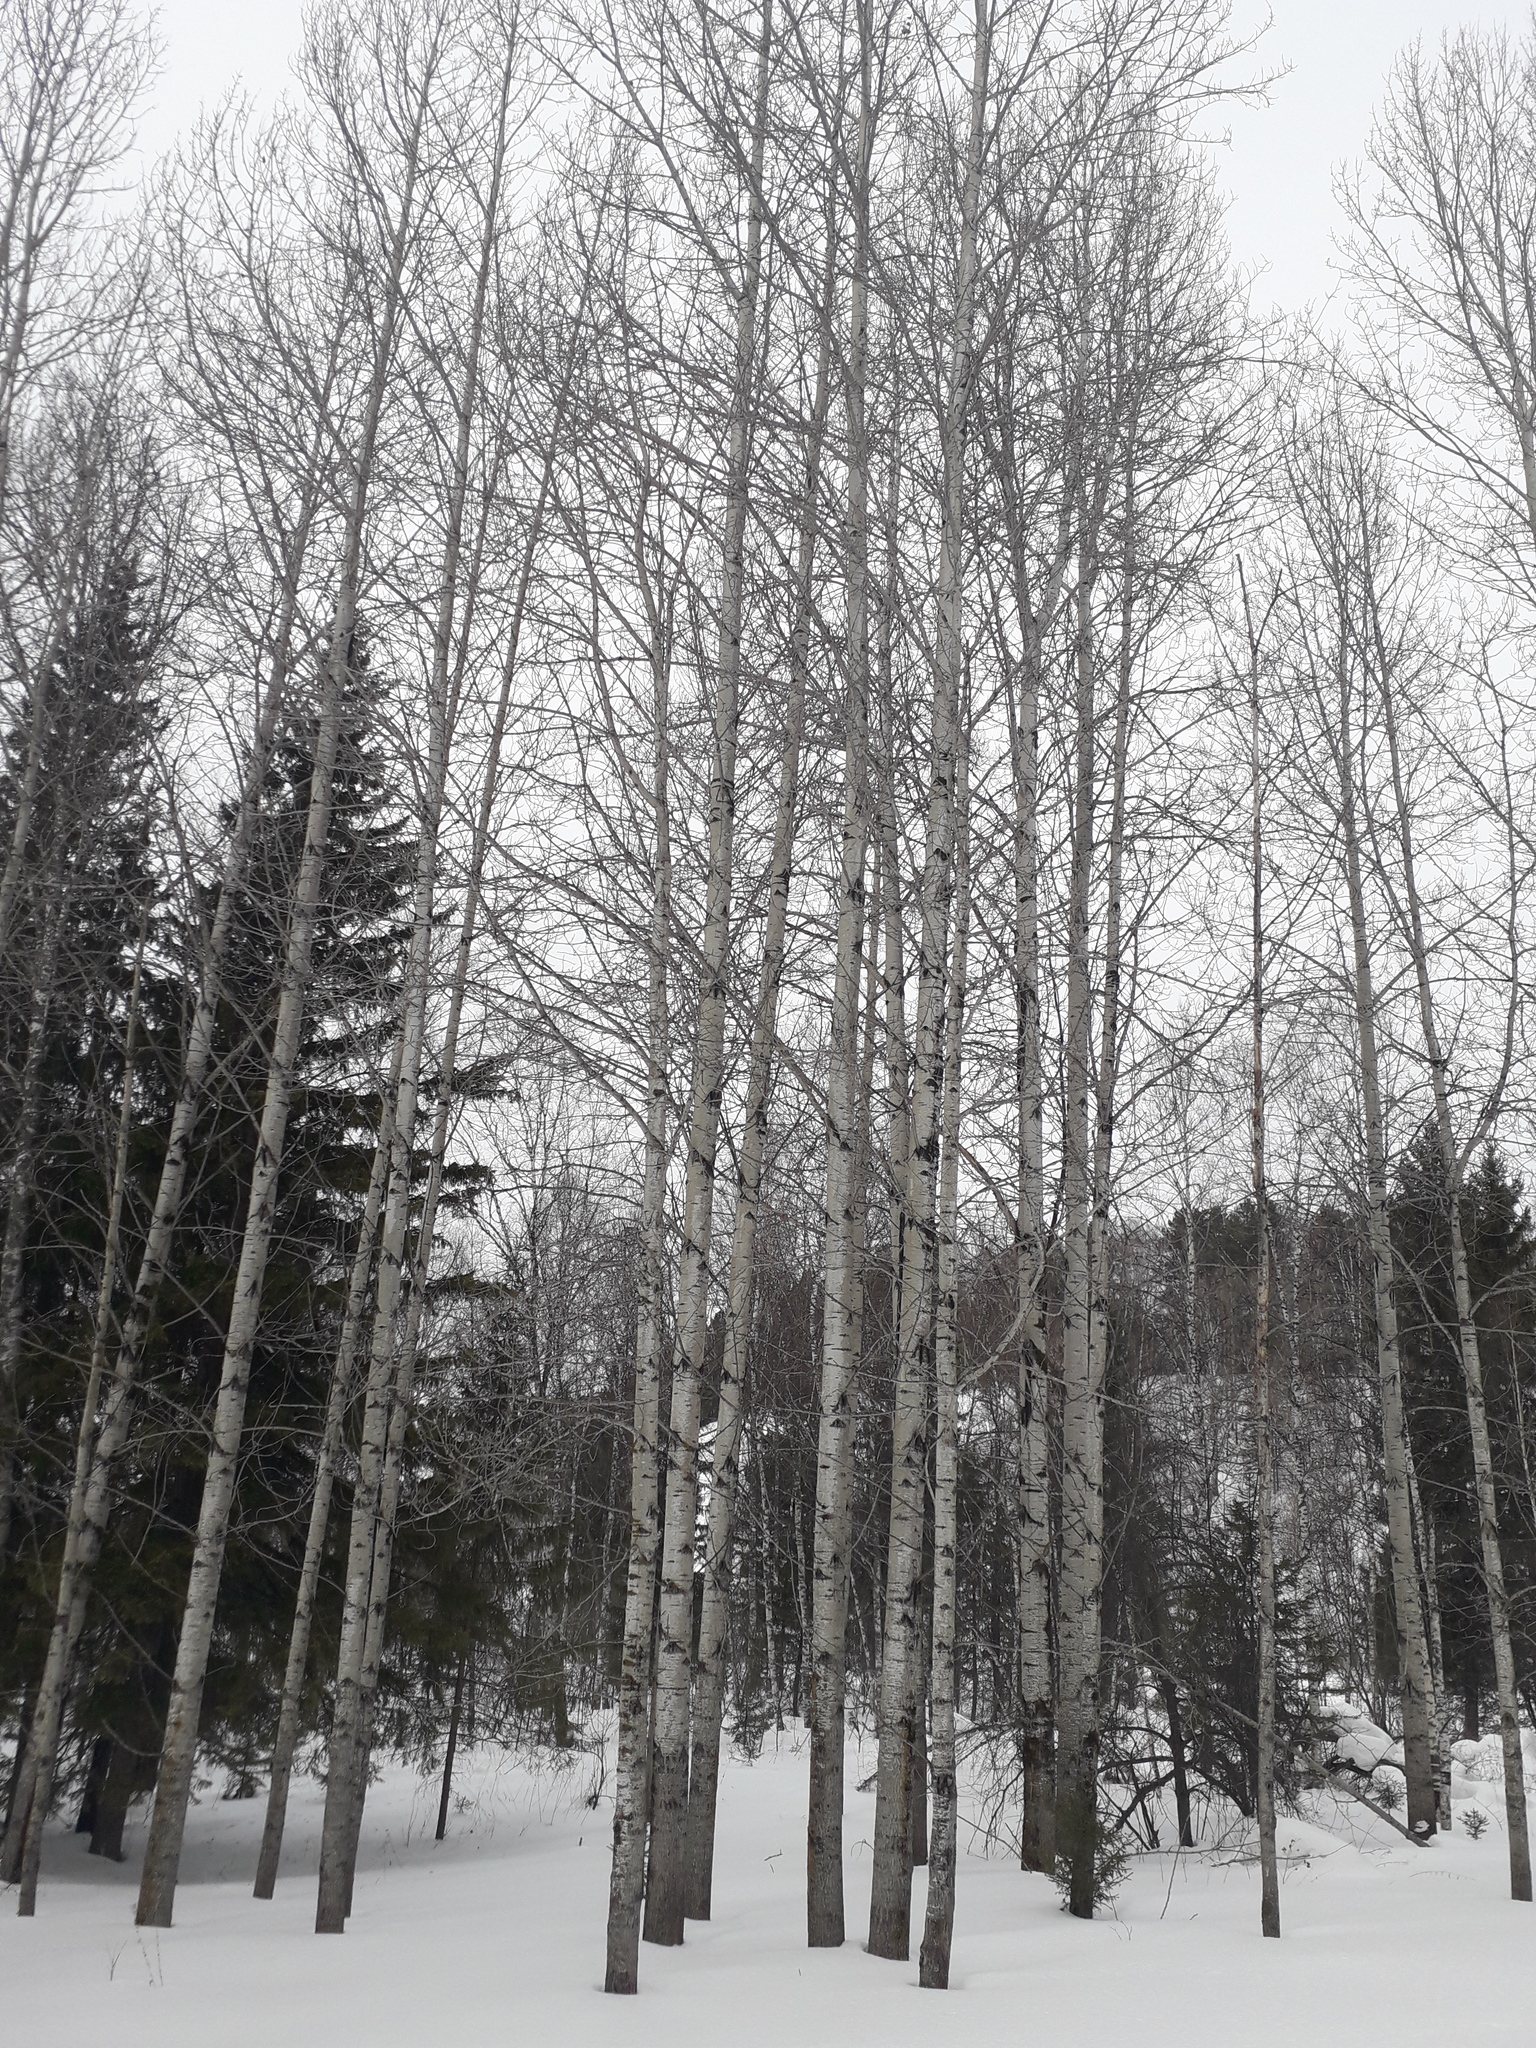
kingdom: Plantae
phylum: Tracheophyta
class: Magnoliopsida
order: Malpighiales
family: Salicaceae
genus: Populus
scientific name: Populus tremula
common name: European aspen
